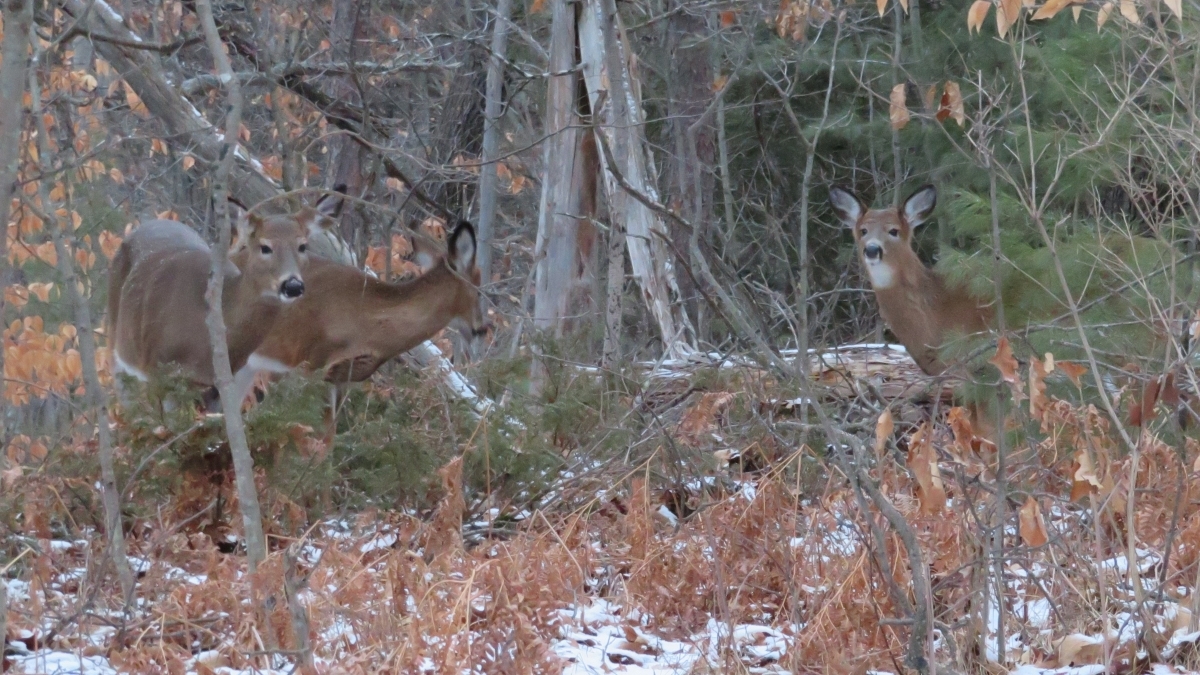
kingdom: Animalia
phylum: Chordata
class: Mammalia
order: Artiodactyla
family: Cervidae
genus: Odocoileus
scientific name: Odocoileus virginianus
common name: White-tailed deer
